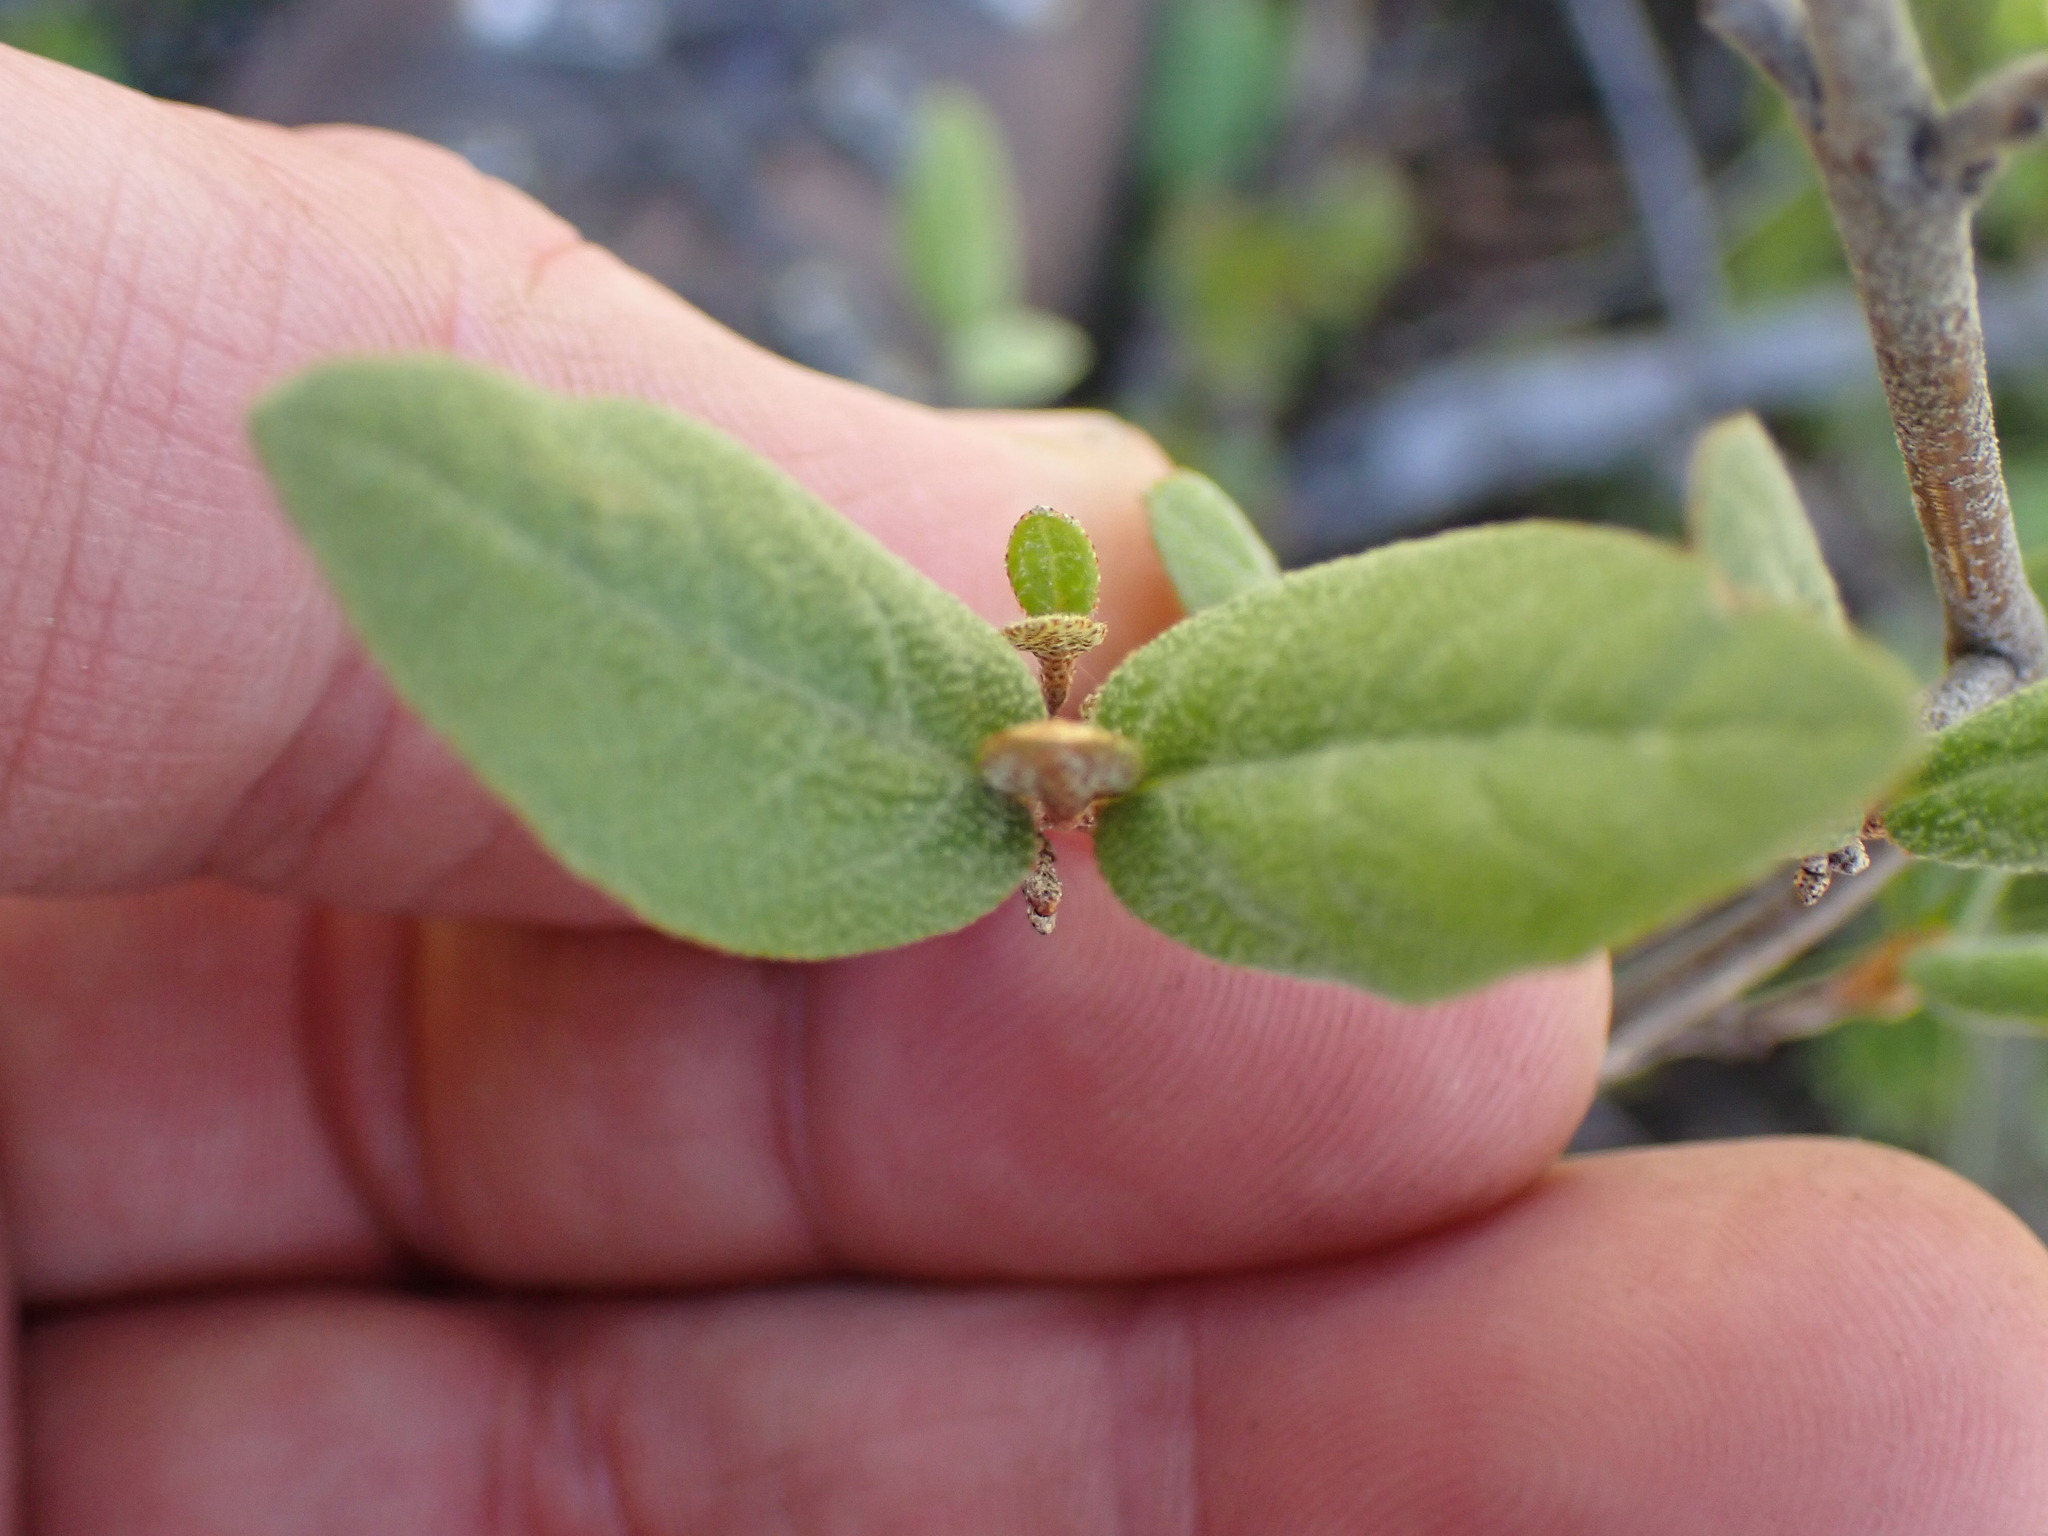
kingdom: Plantae
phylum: Tracheophyta
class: Magnoliopsida
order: Rosales
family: Elaeagnaceae
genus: Shepherdia
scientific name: Shepherdia canadensis
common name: Soapberry
